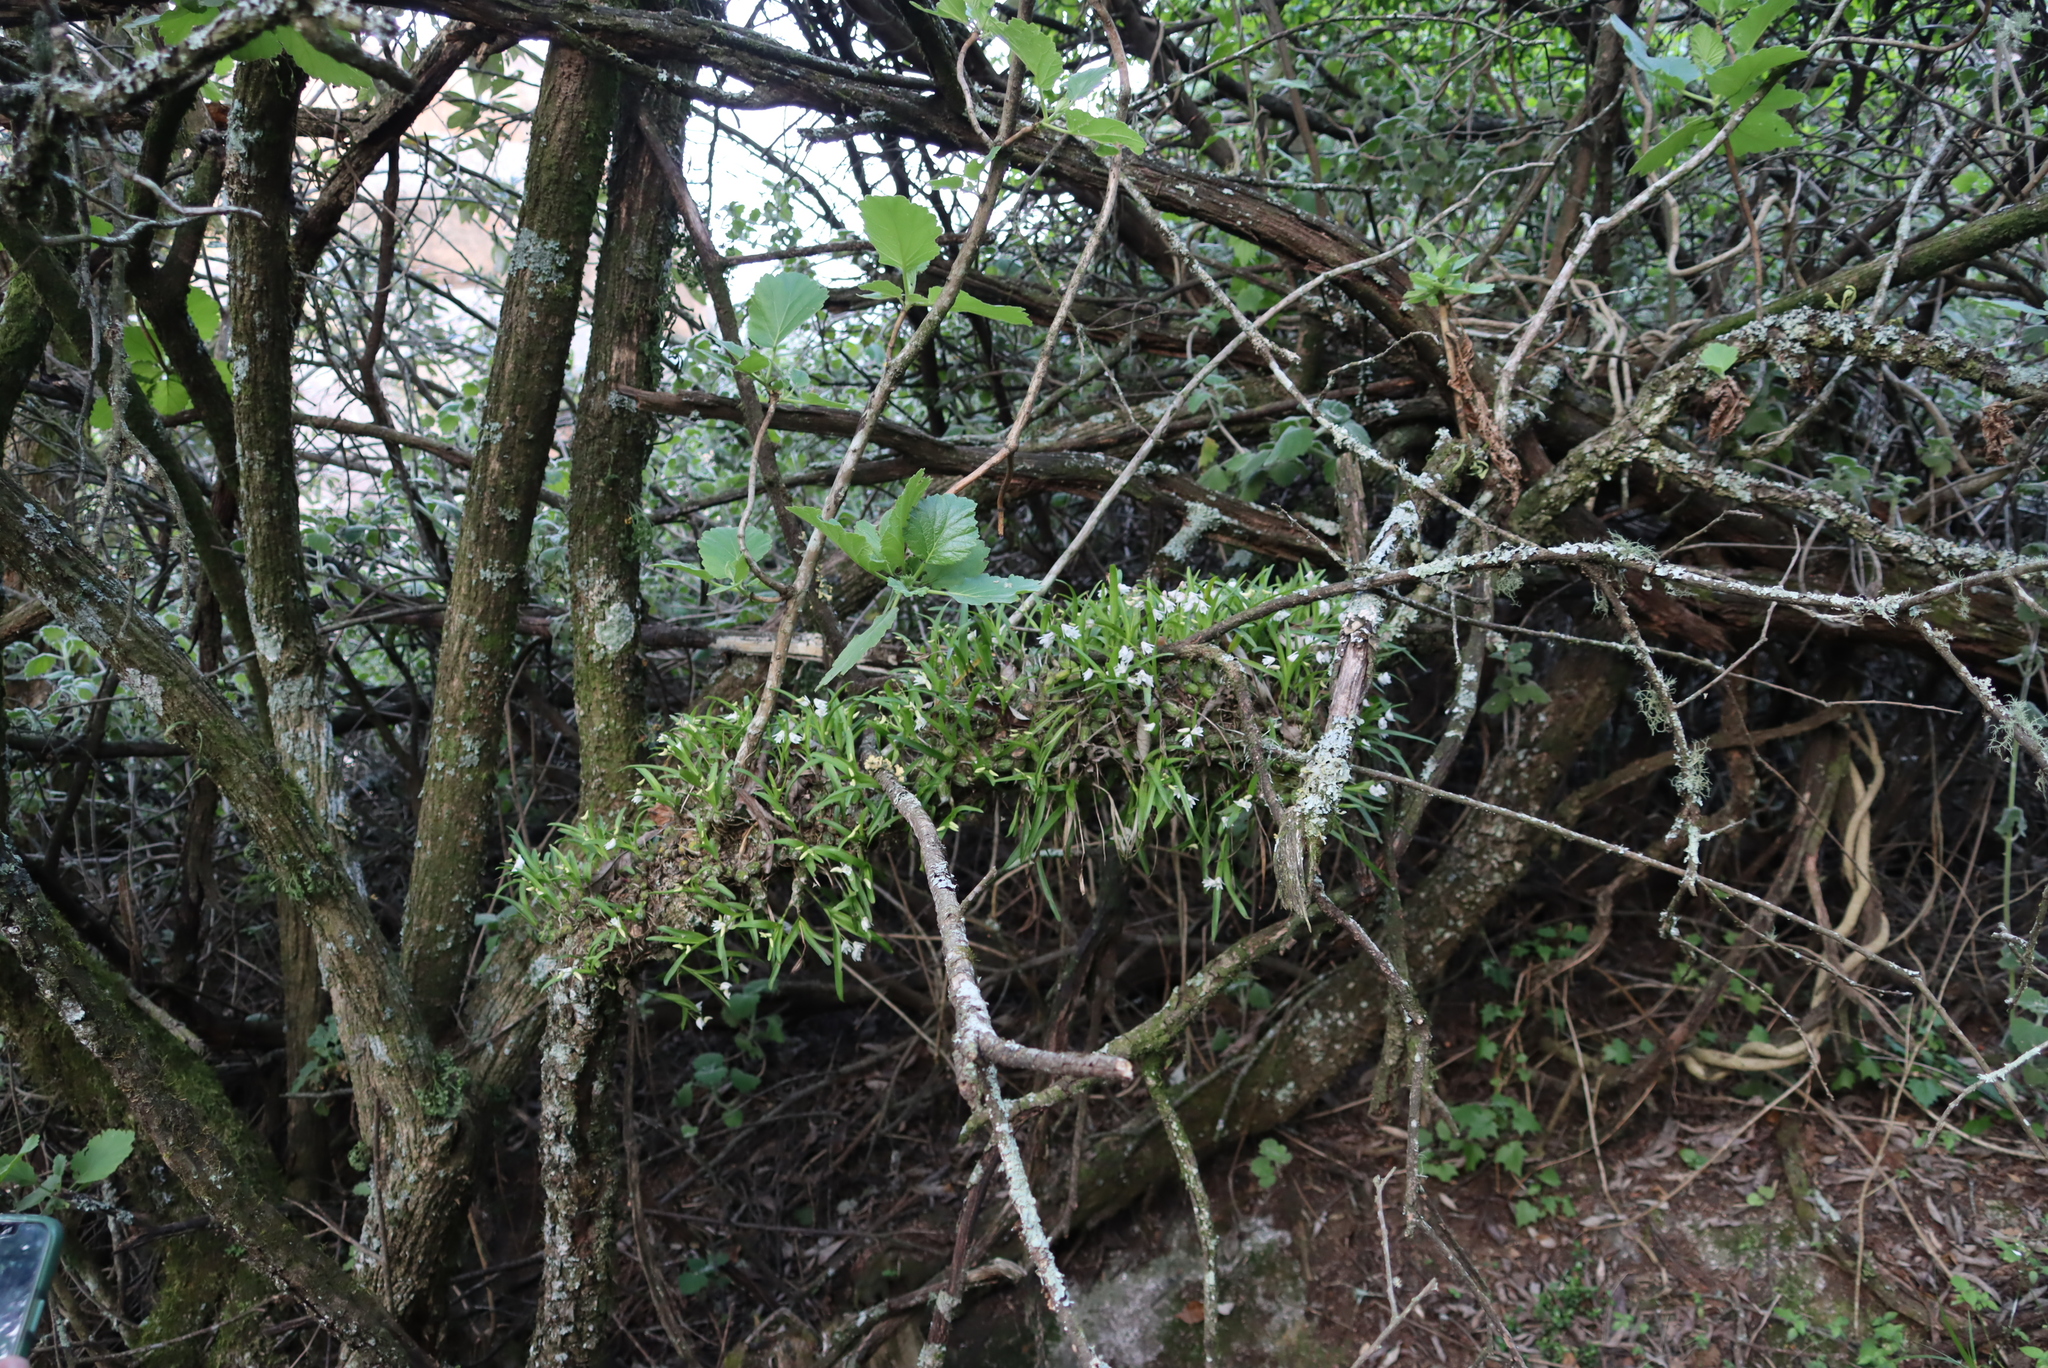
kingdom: Plantae
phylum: Tracheophyta
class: Liliopsida
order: Asparagales
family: Orchidaceae
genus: Polystachya
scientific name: Polystachya ottoniana
